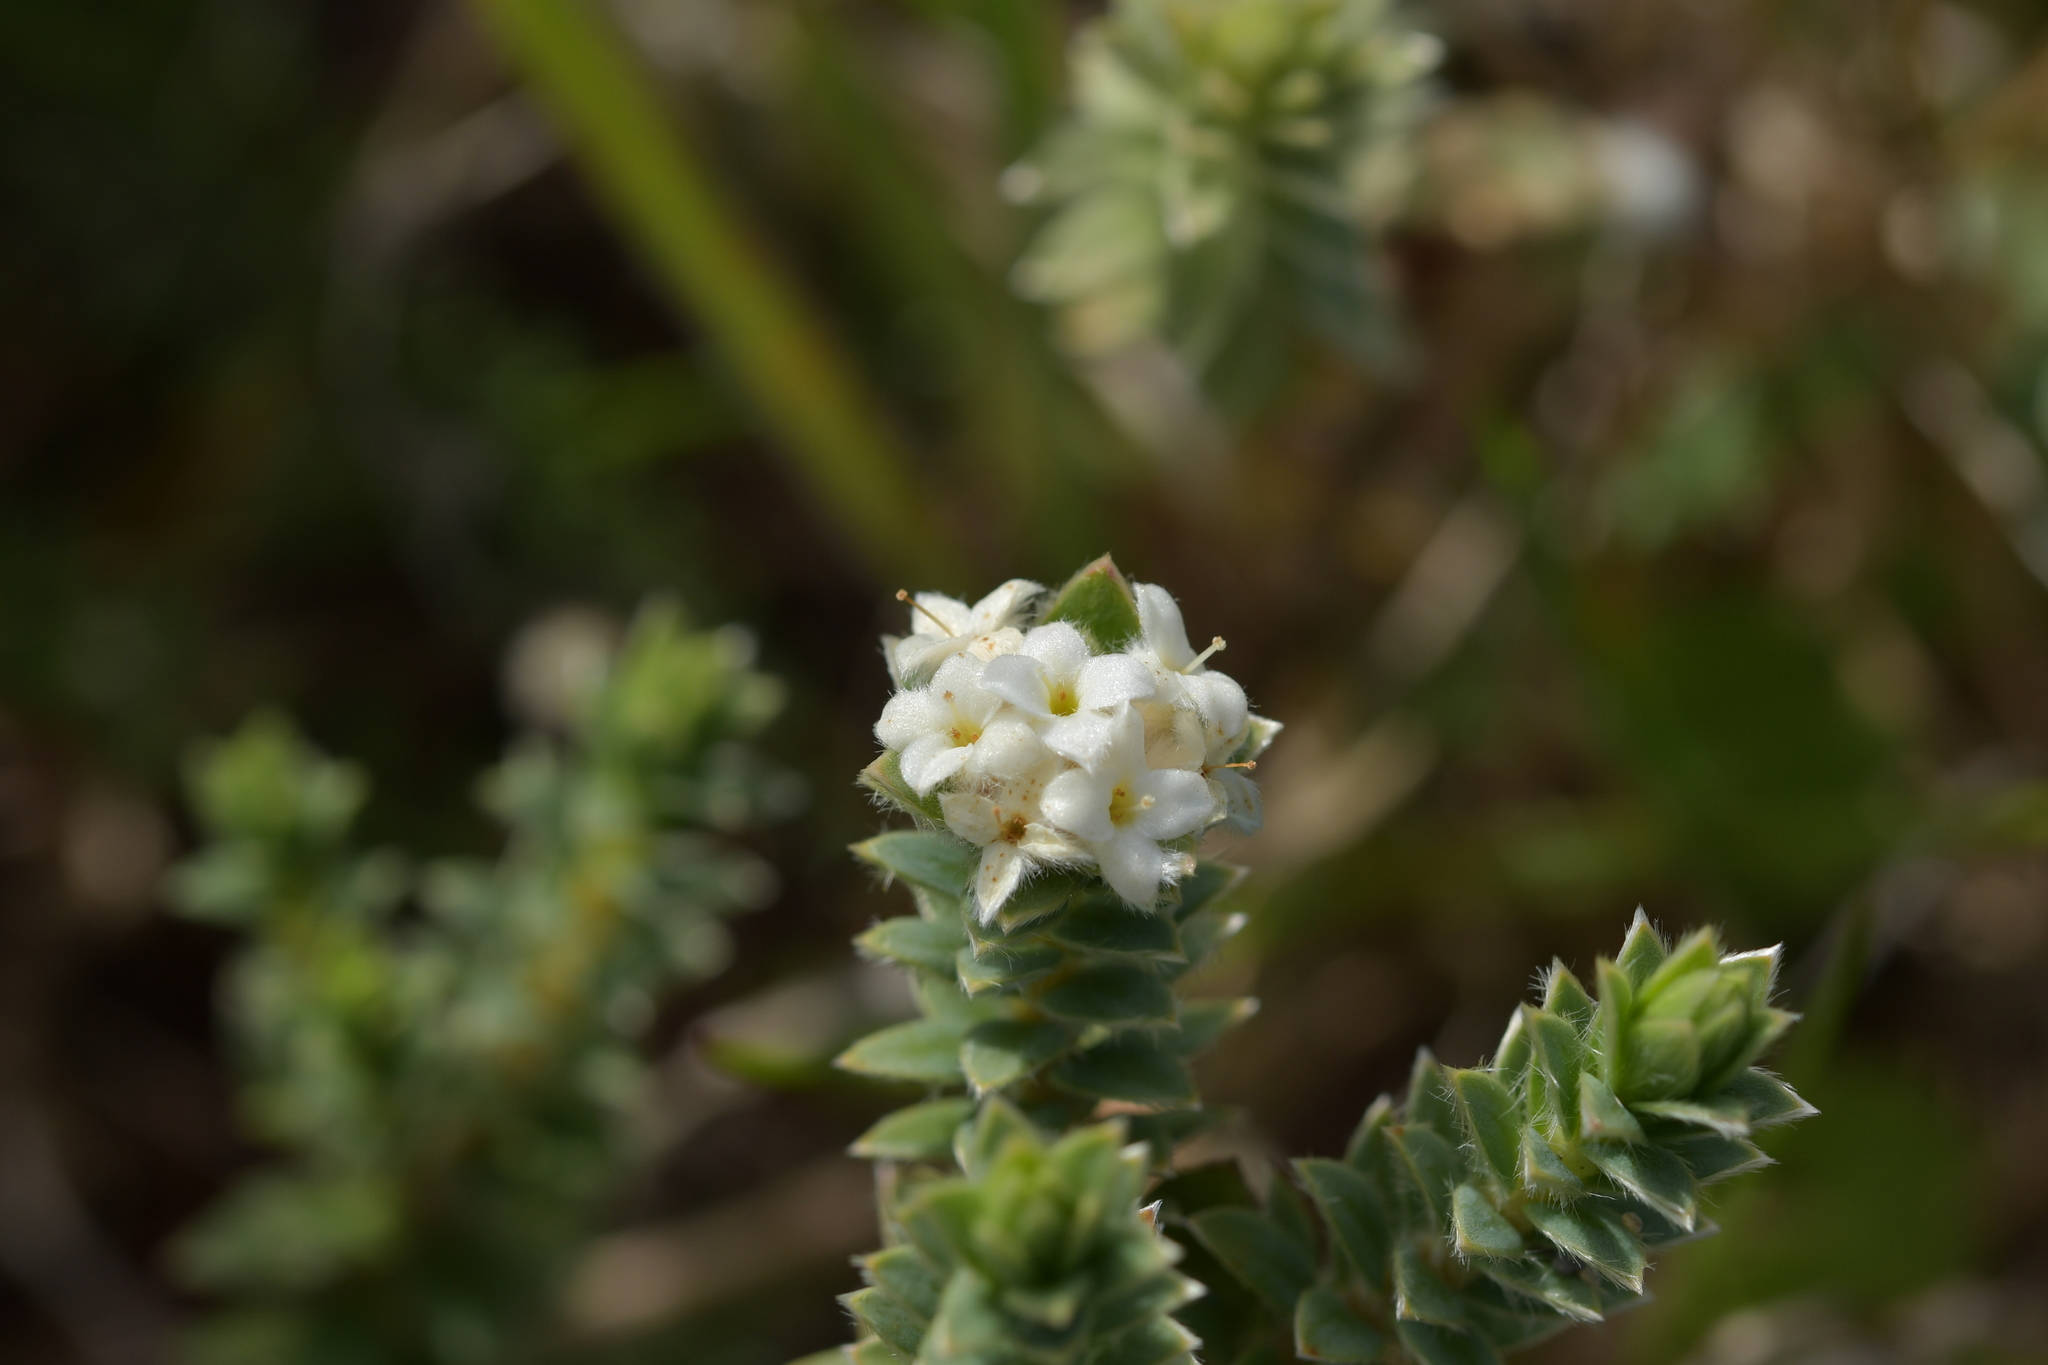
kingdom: Plantae
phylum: Tracheophyta
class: Magnoliopsida
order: Malvales
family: Thymelaeaceae
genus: Pimelea
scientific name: Pimelea villosa
